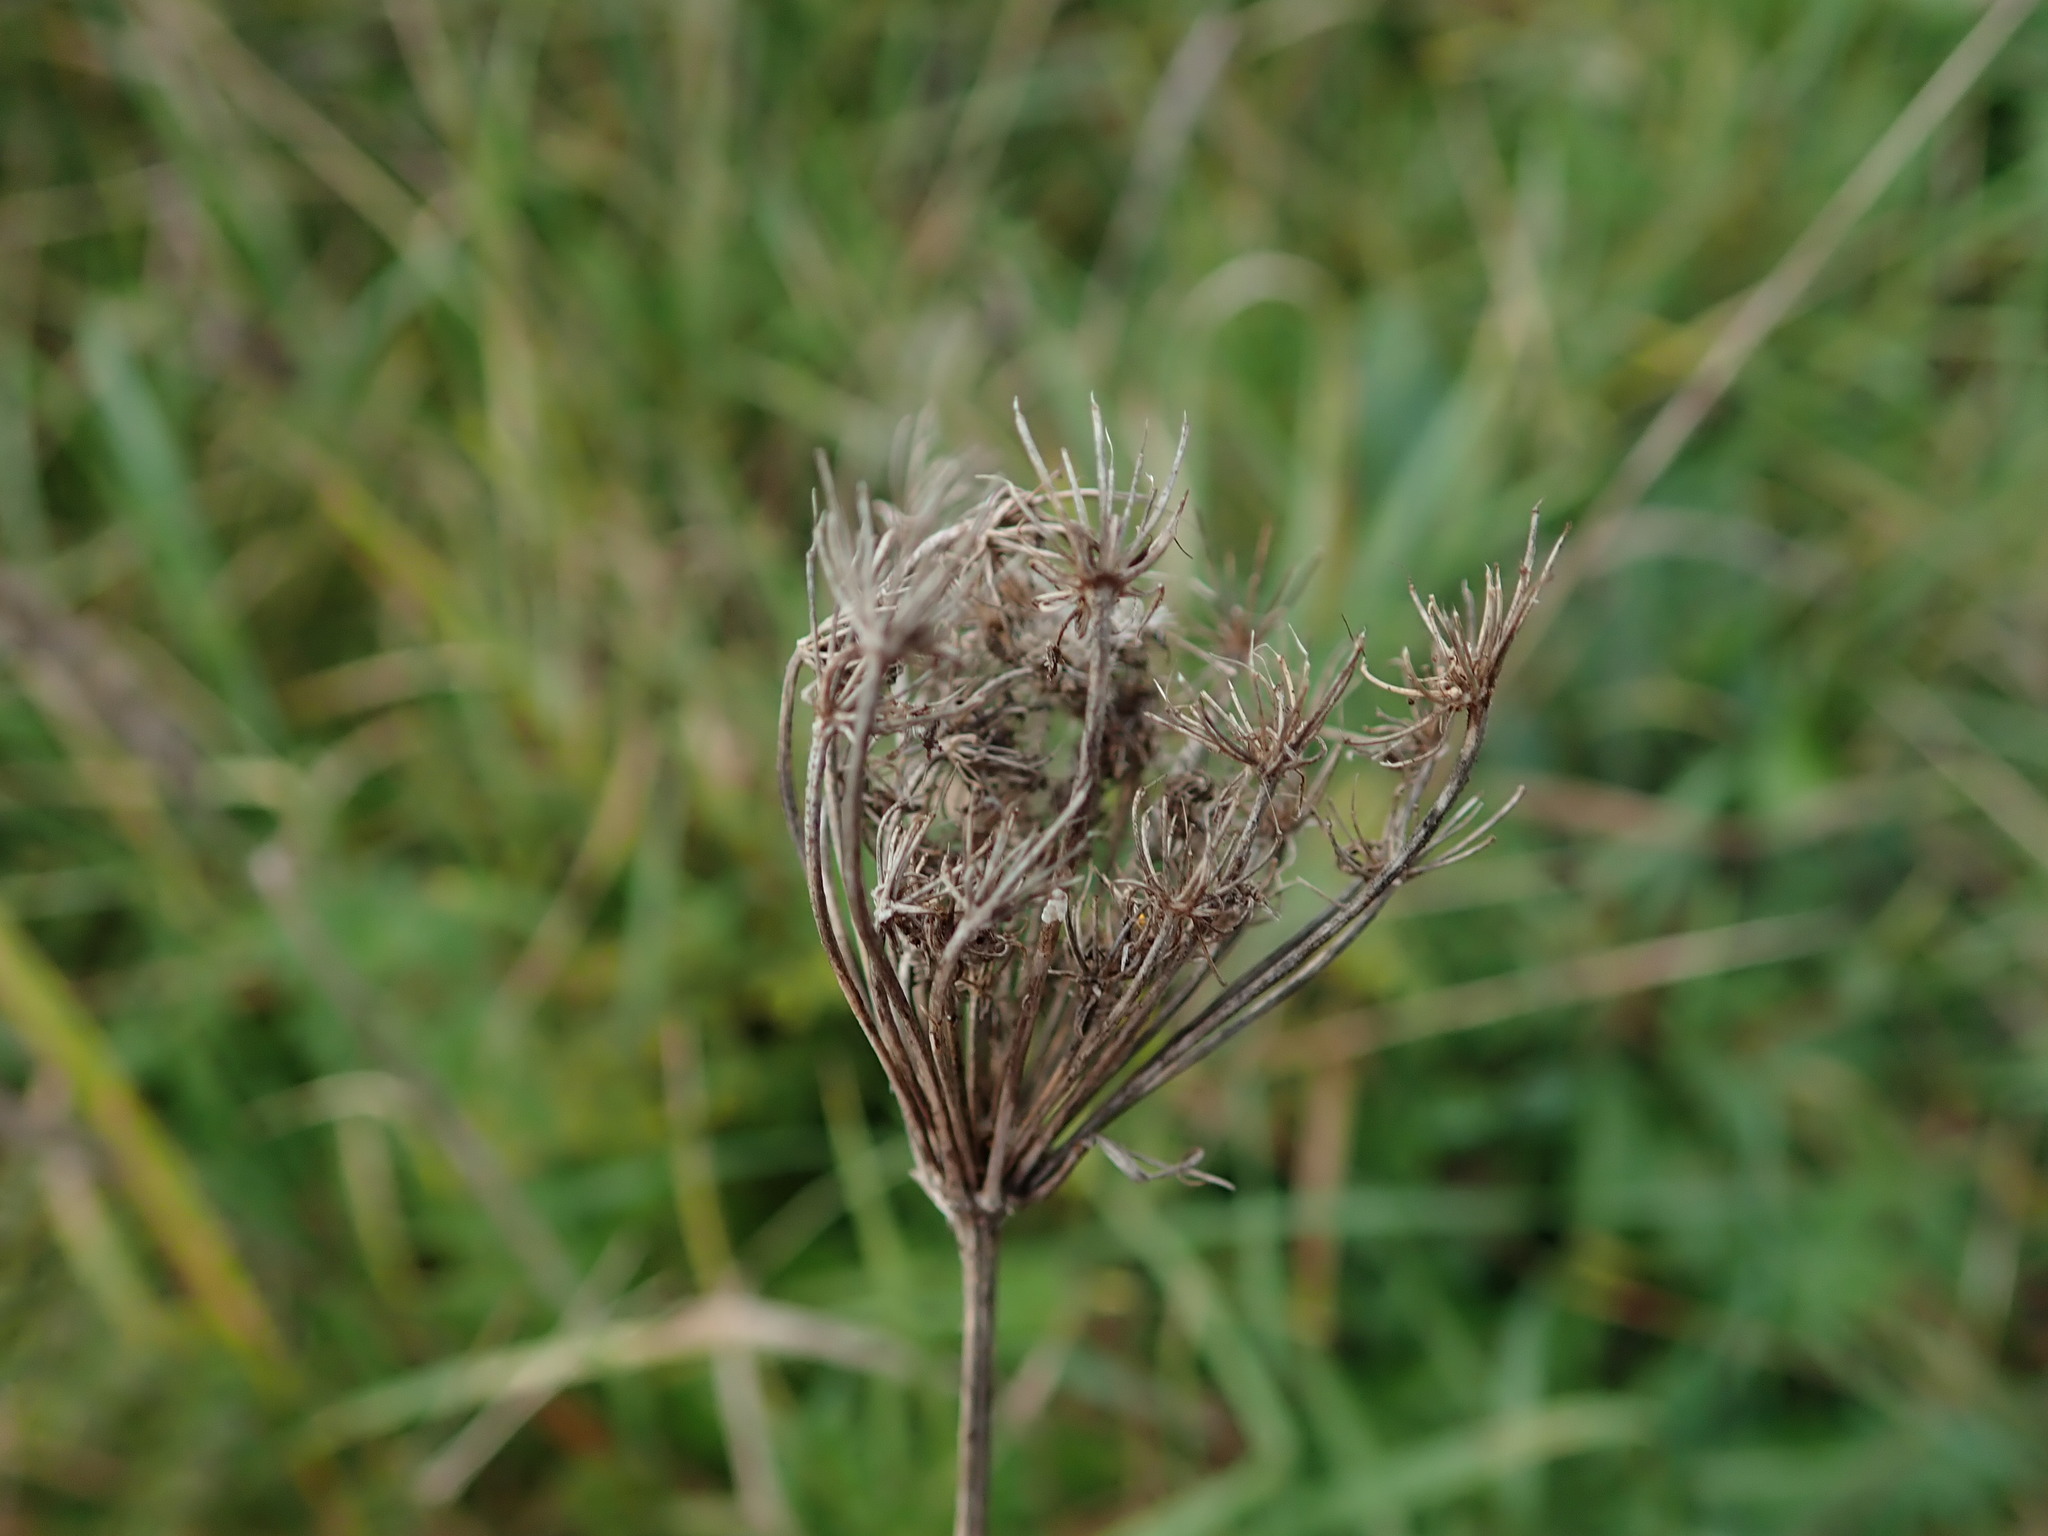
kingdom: Plantae
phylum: Tracheophyta
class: Magnoliopsida
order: Apiales
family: Apiaceae
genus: Daucus
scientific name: Daucus carota
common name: Wild carrot
